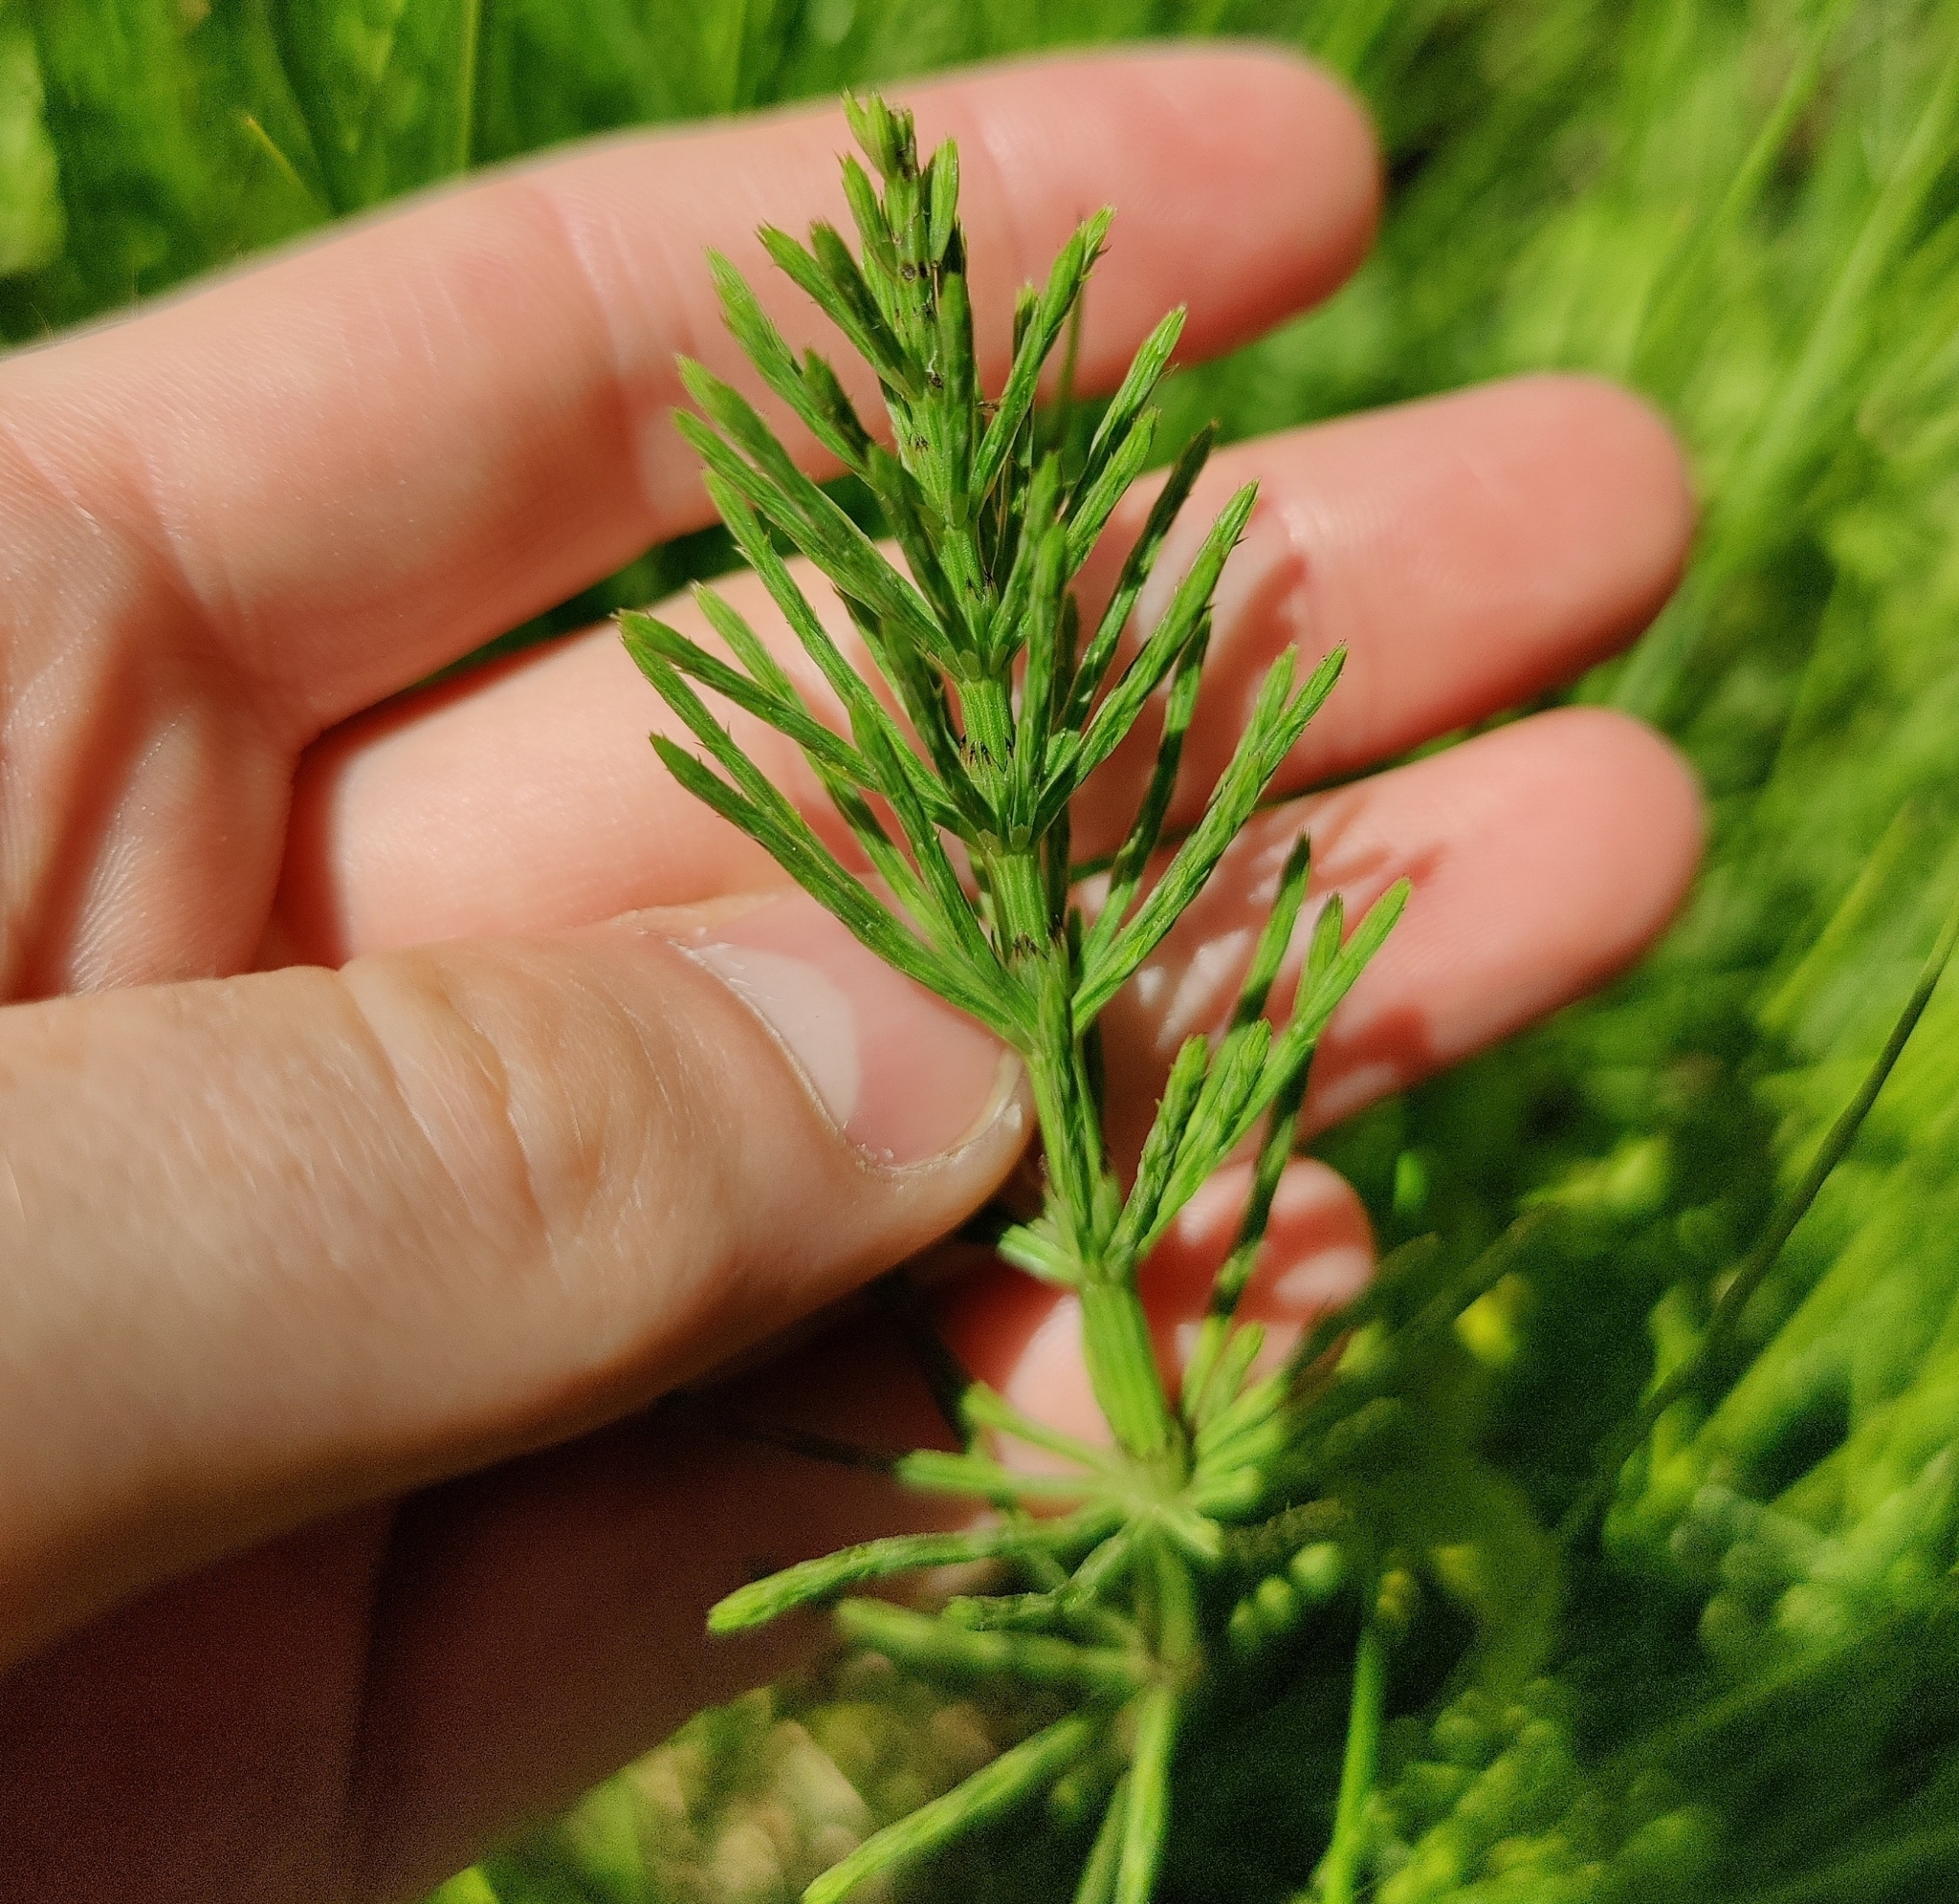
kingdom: Plantae
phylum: Tracheophyta
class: Polypodiopsida
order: Equisetales
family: Equisetaceae
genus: Equisetum
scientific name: Equisetum arvense
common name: Field horsetail
